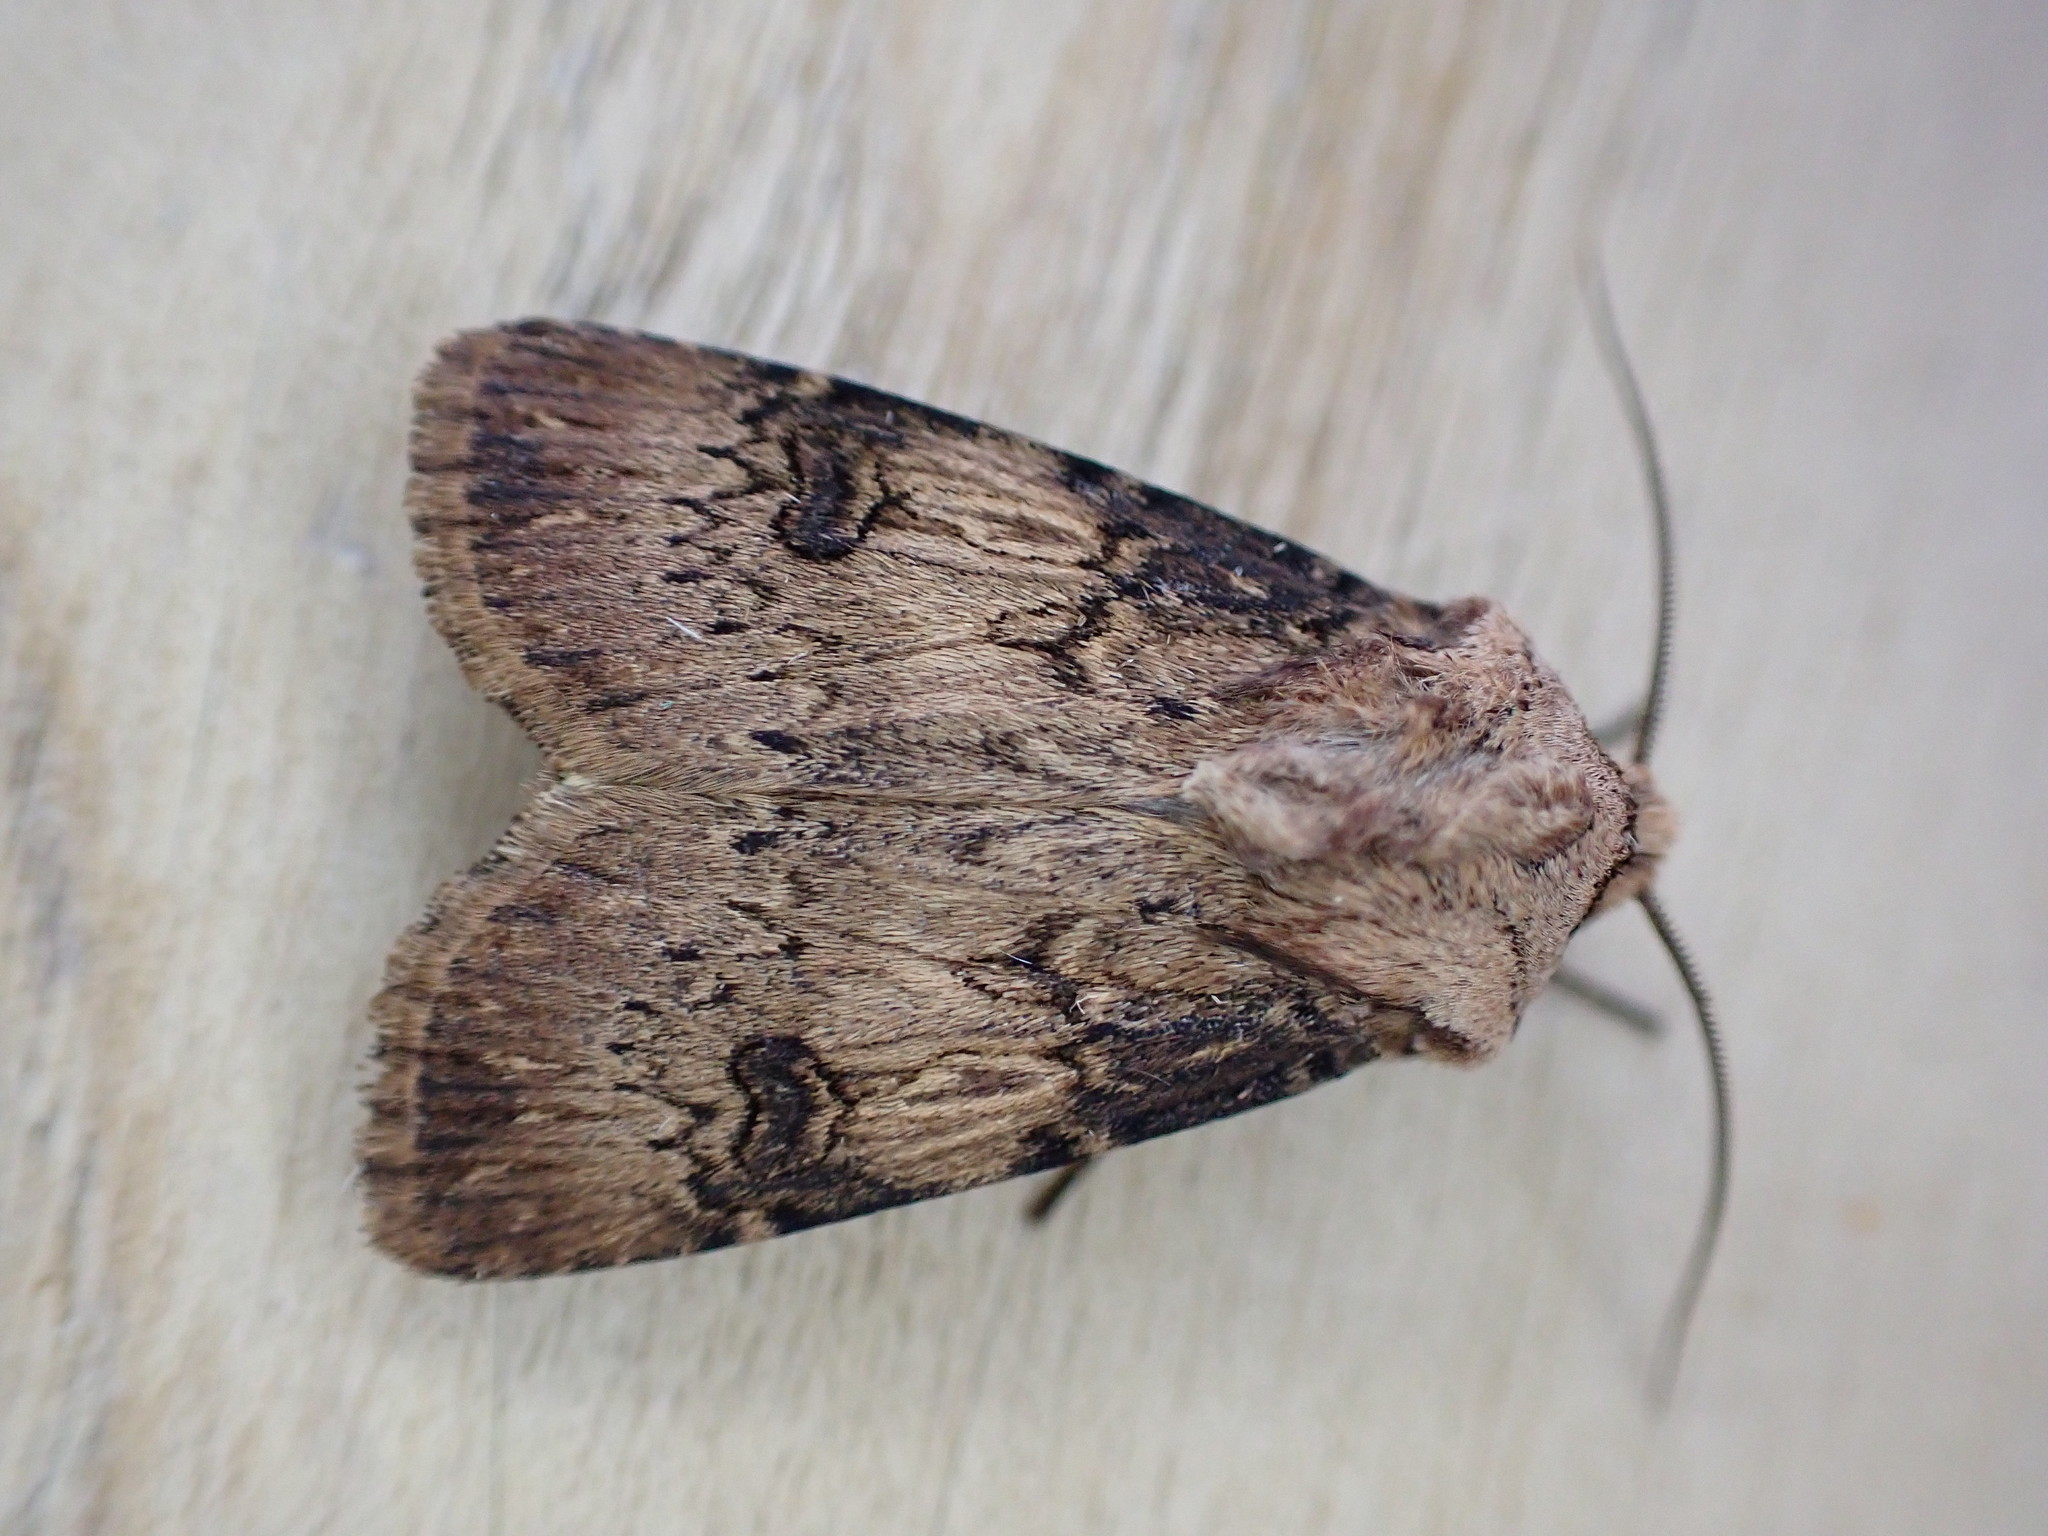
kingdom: Animalia
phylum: Arthropoda
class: Insecta
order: Lepidoptera
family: Noctuidae
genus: Agrotis
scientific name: Agrotis puta
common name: Shuttle-shaped dart
